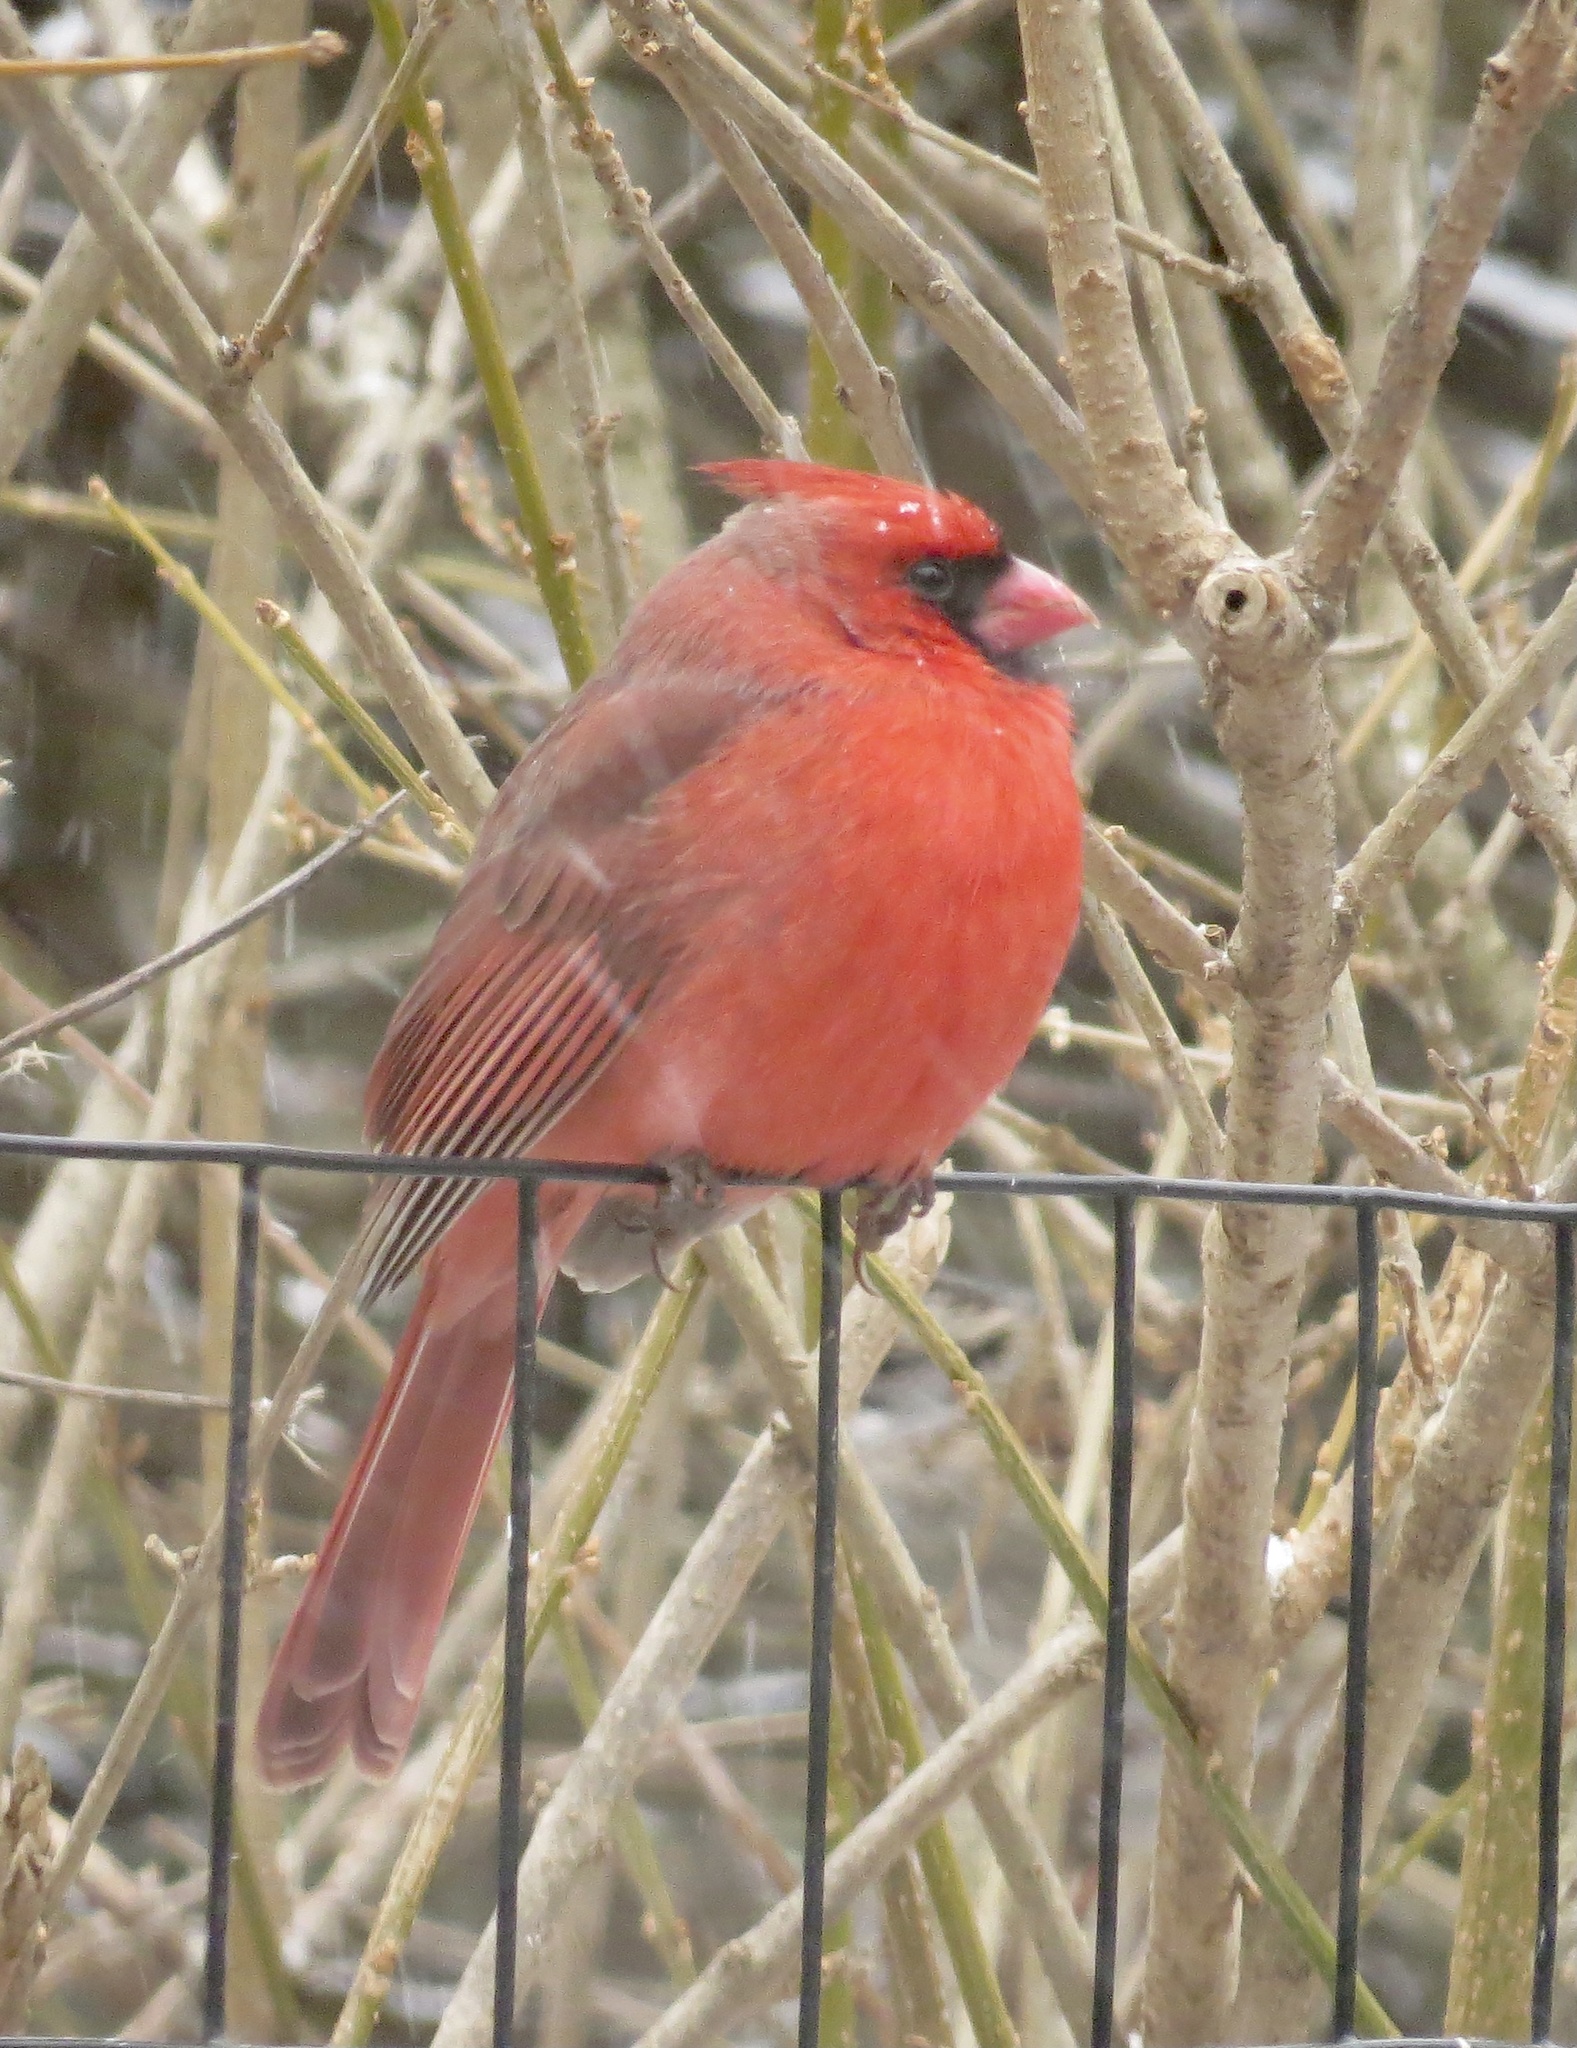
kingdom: Animalia
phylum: Chordata
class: Aves
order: Passeriformes
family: Cardinalidae
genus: Cardinalis
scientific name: Cardinalis cardinalis
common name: Northern cardinal
